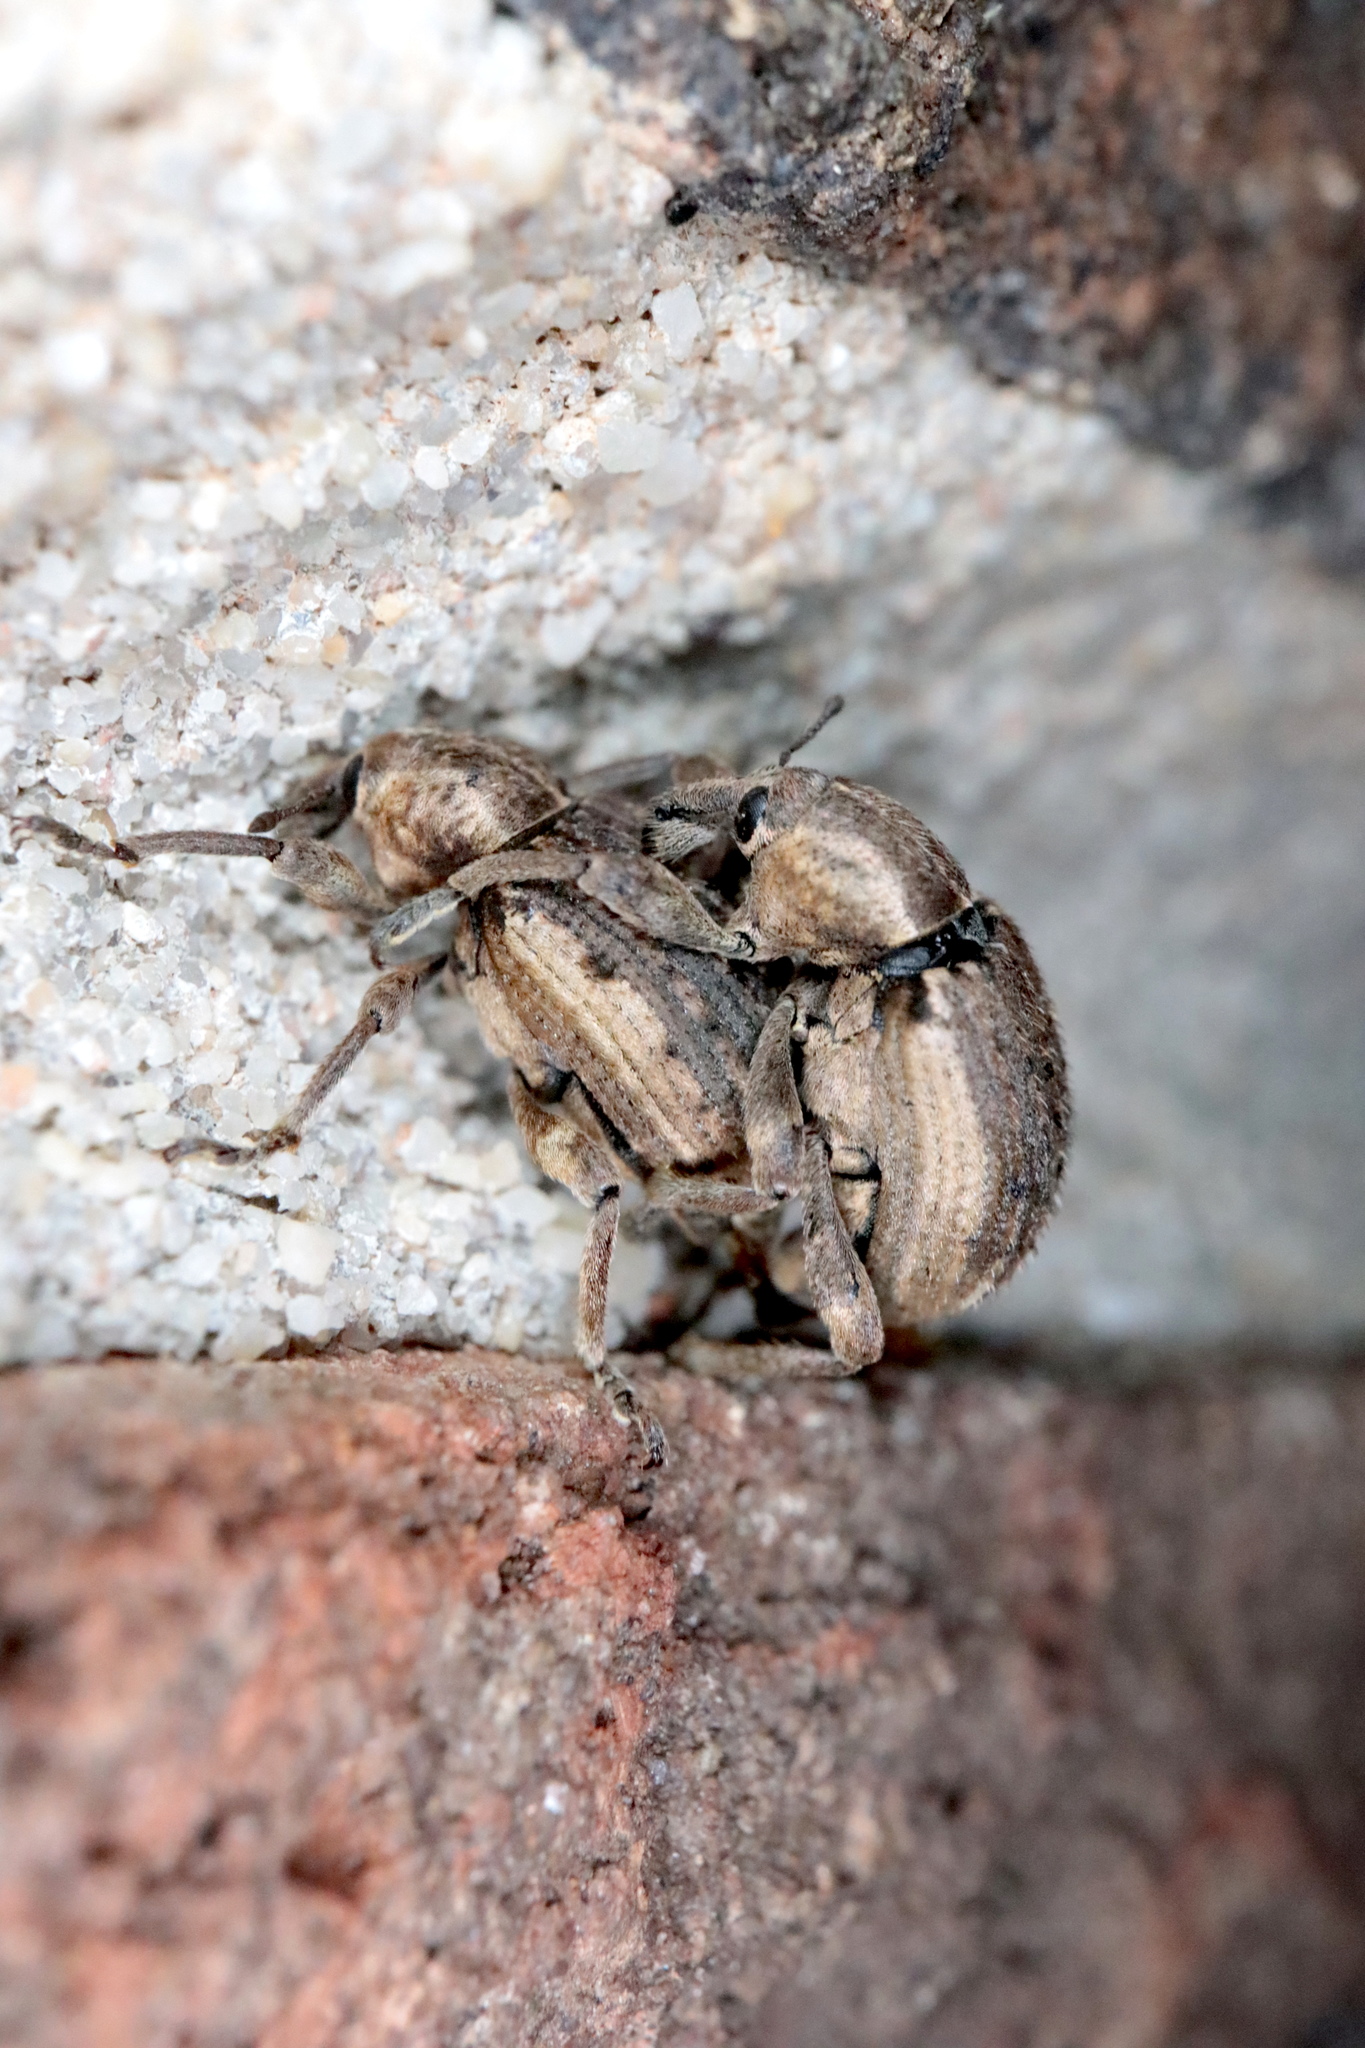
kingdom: Animalia
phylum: Arthropoda
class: Insecta
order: Coleoptera
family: Curculionidae
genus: Brachypera
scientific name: Brachypera zoilus
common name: Clover leaf weevil
